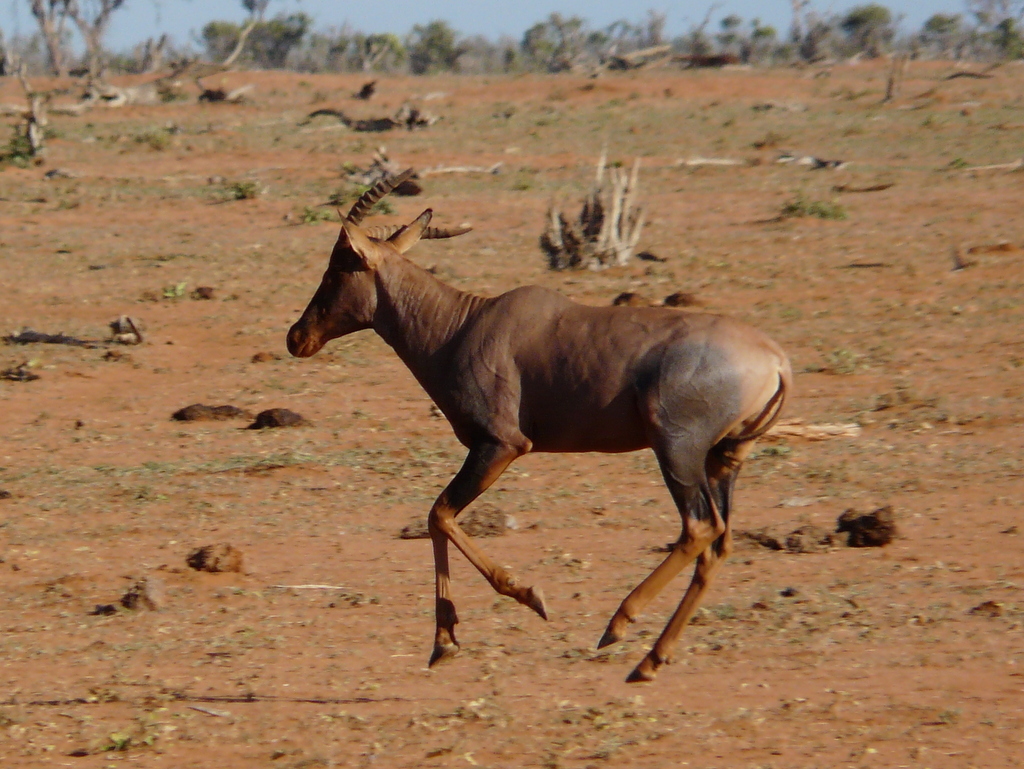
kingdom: Animalia
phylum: Chordata
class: Mammalia
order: Artiodactyla
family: Bovidae
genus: Damaliscus
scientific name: Damaliscus lunatus
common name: Common tsessebe
